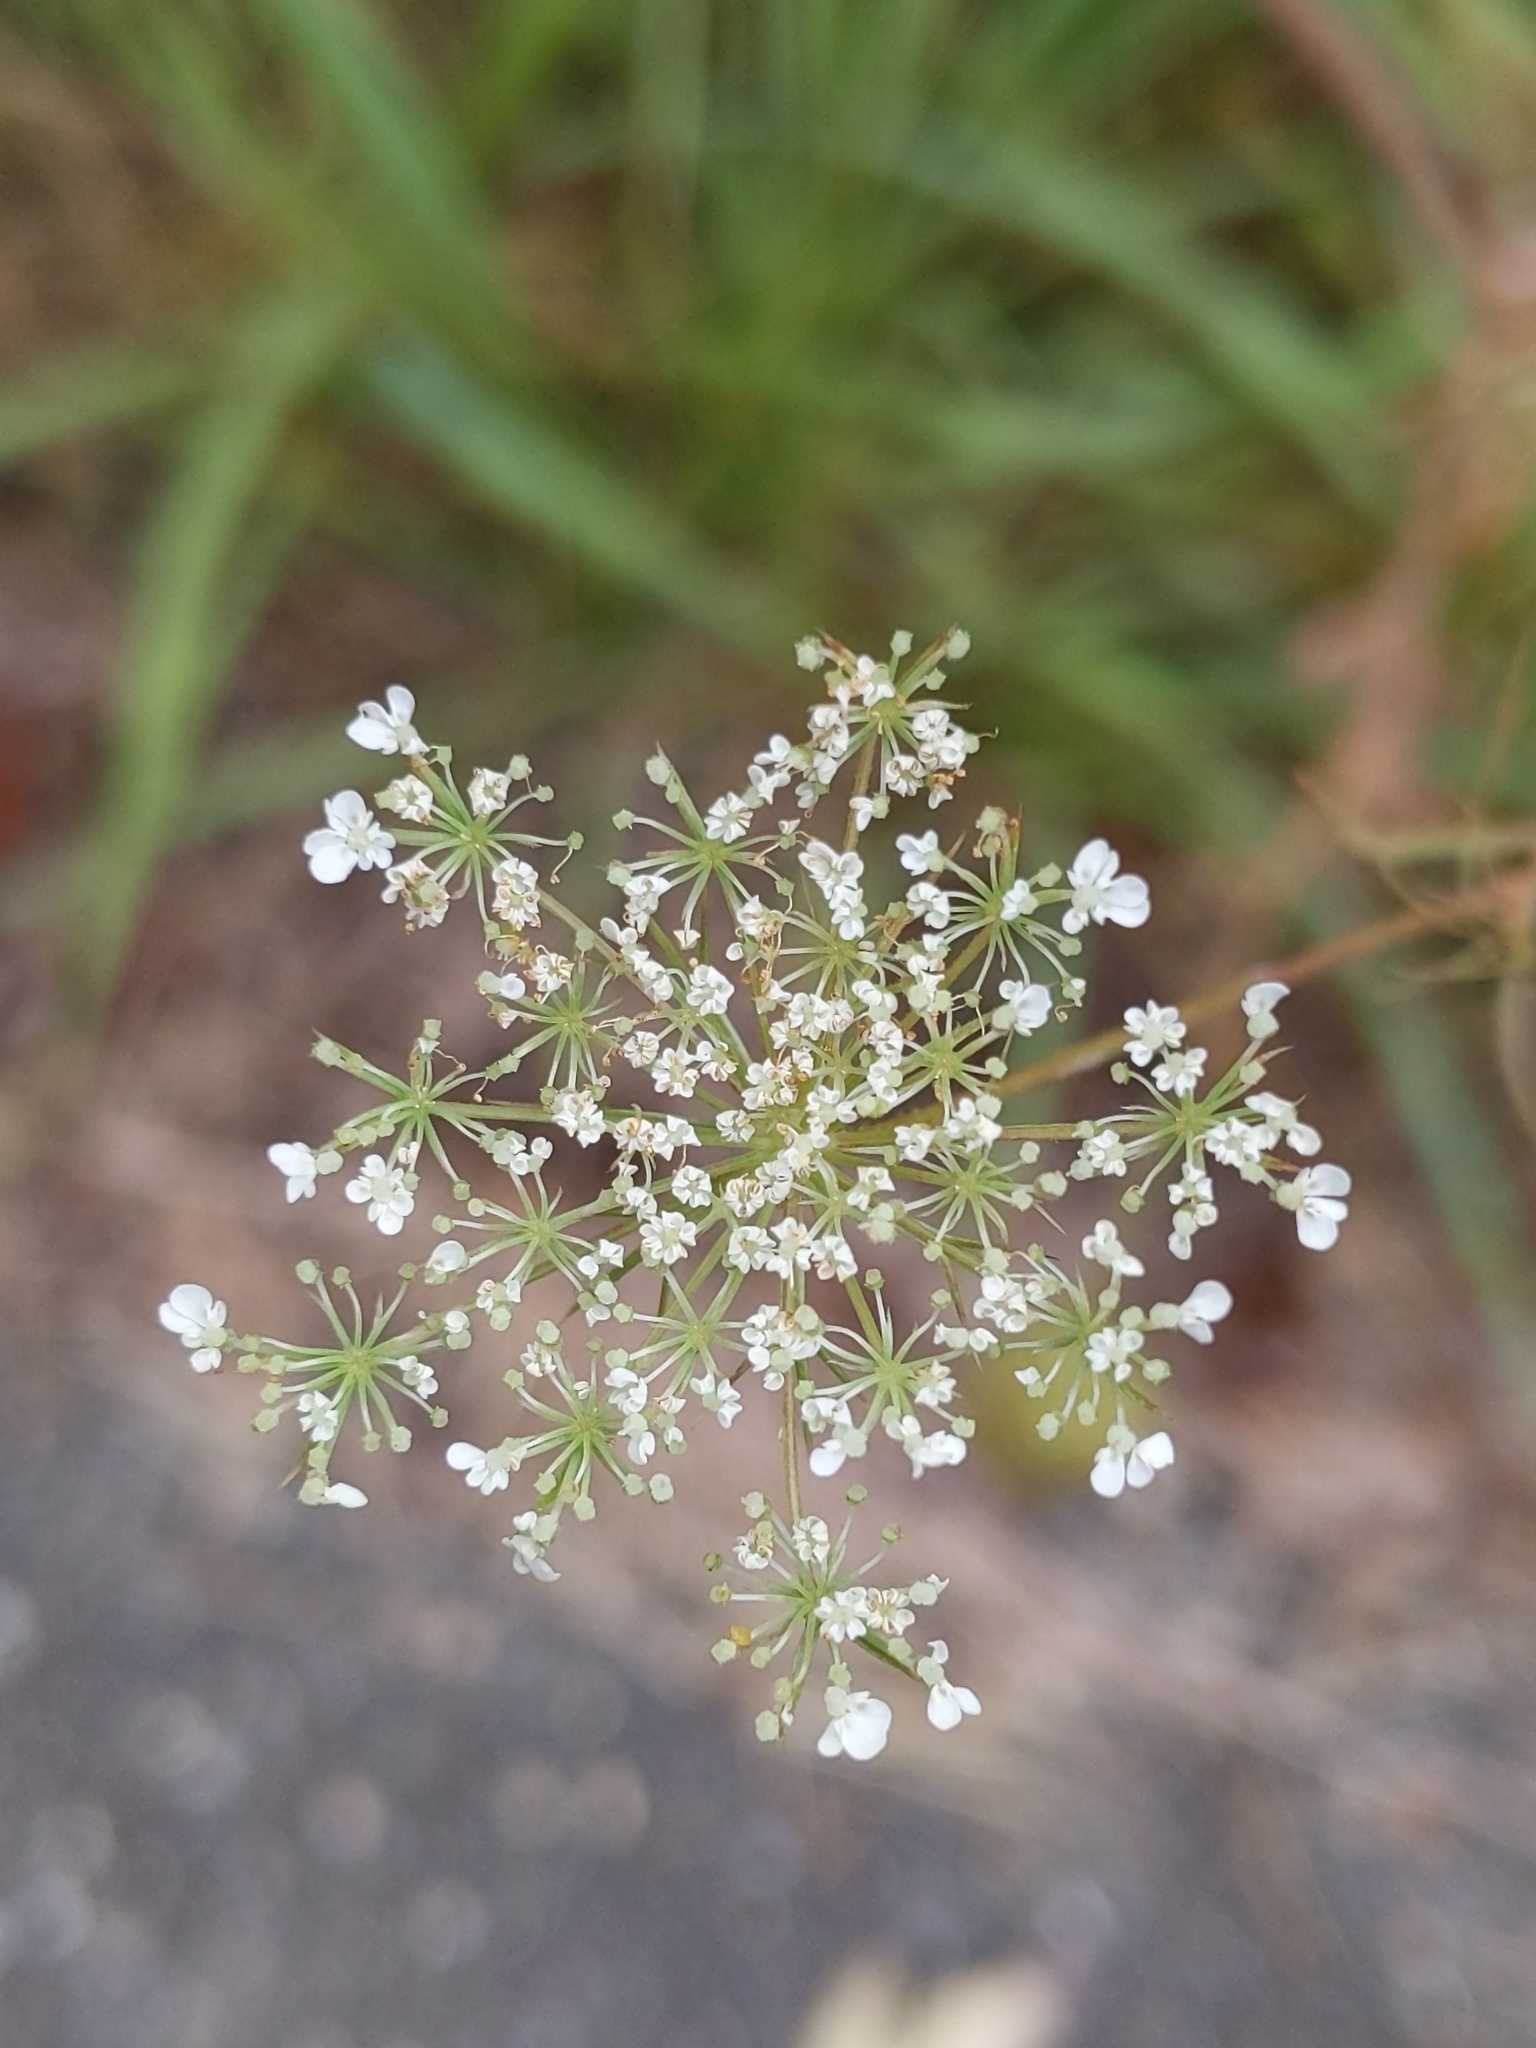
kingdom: Plantae
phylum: Tracheophyta
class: Magnoliopsida
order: Apiales
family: Apiaceae
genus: Daucus
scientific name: Daucus carota
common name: Wild carrot
